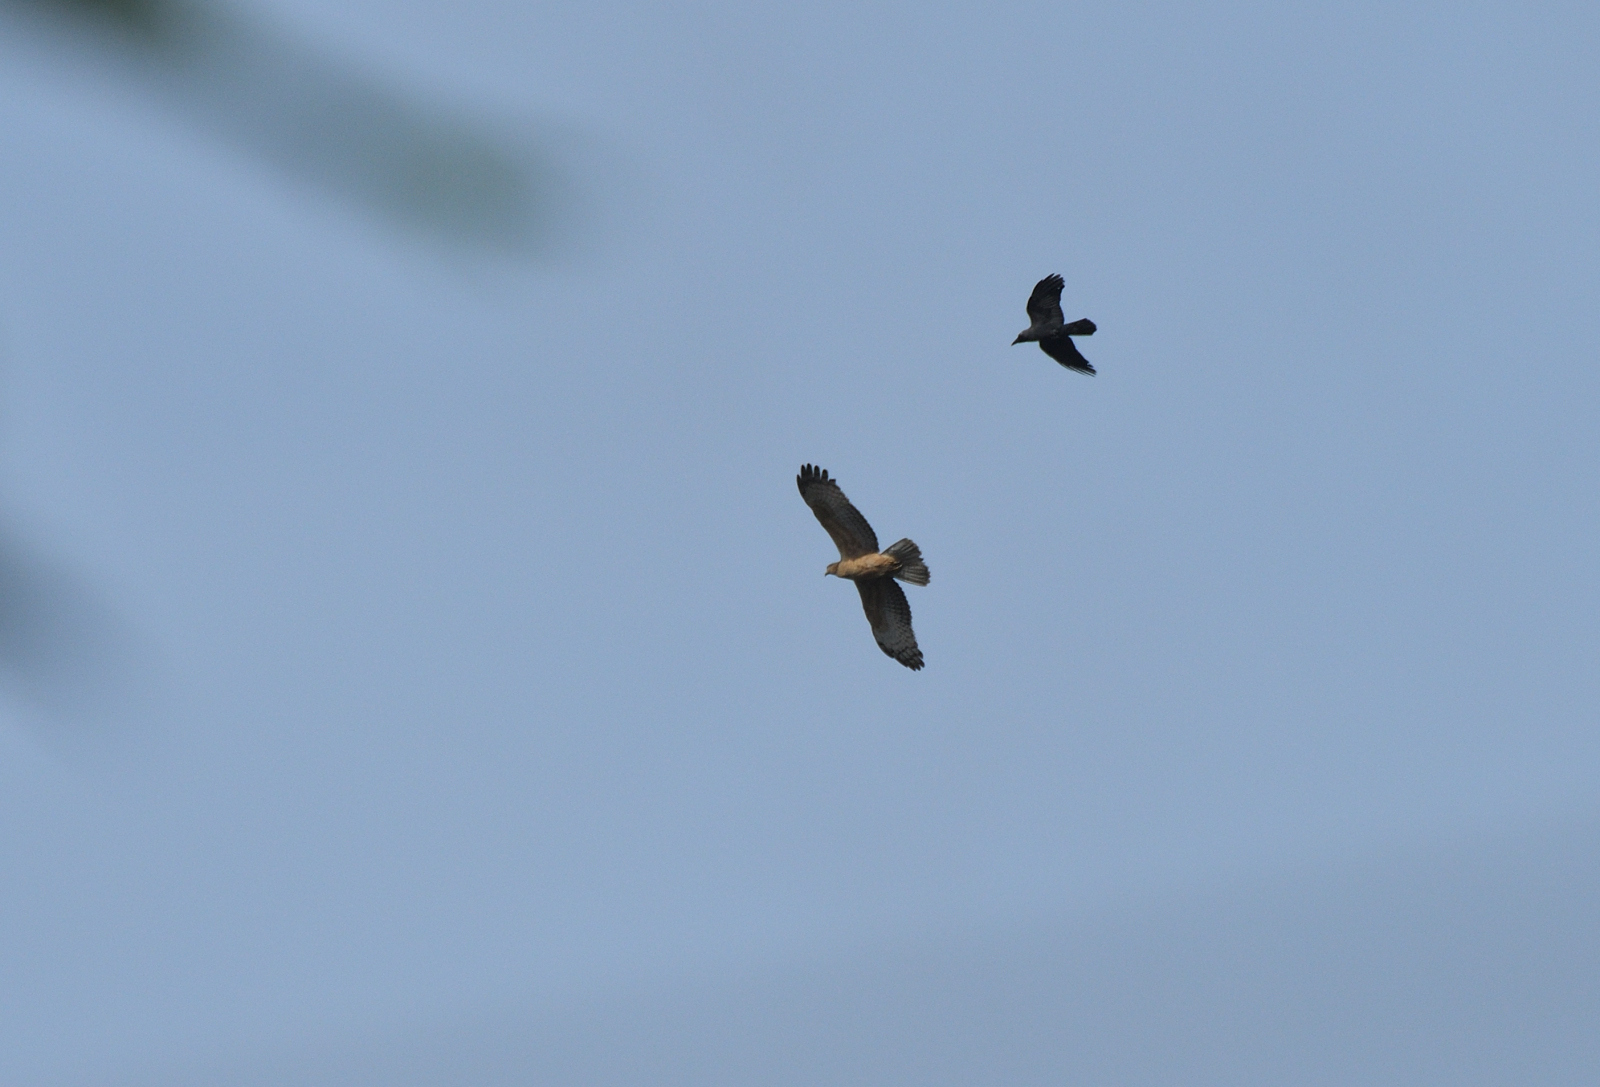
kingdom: Animalia
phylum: Chordata
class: Aves
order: Accipitriformes
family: Accipitridae
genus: Pernis
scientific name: Pernis ptilorhynchus
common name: Crested honey buzzard
